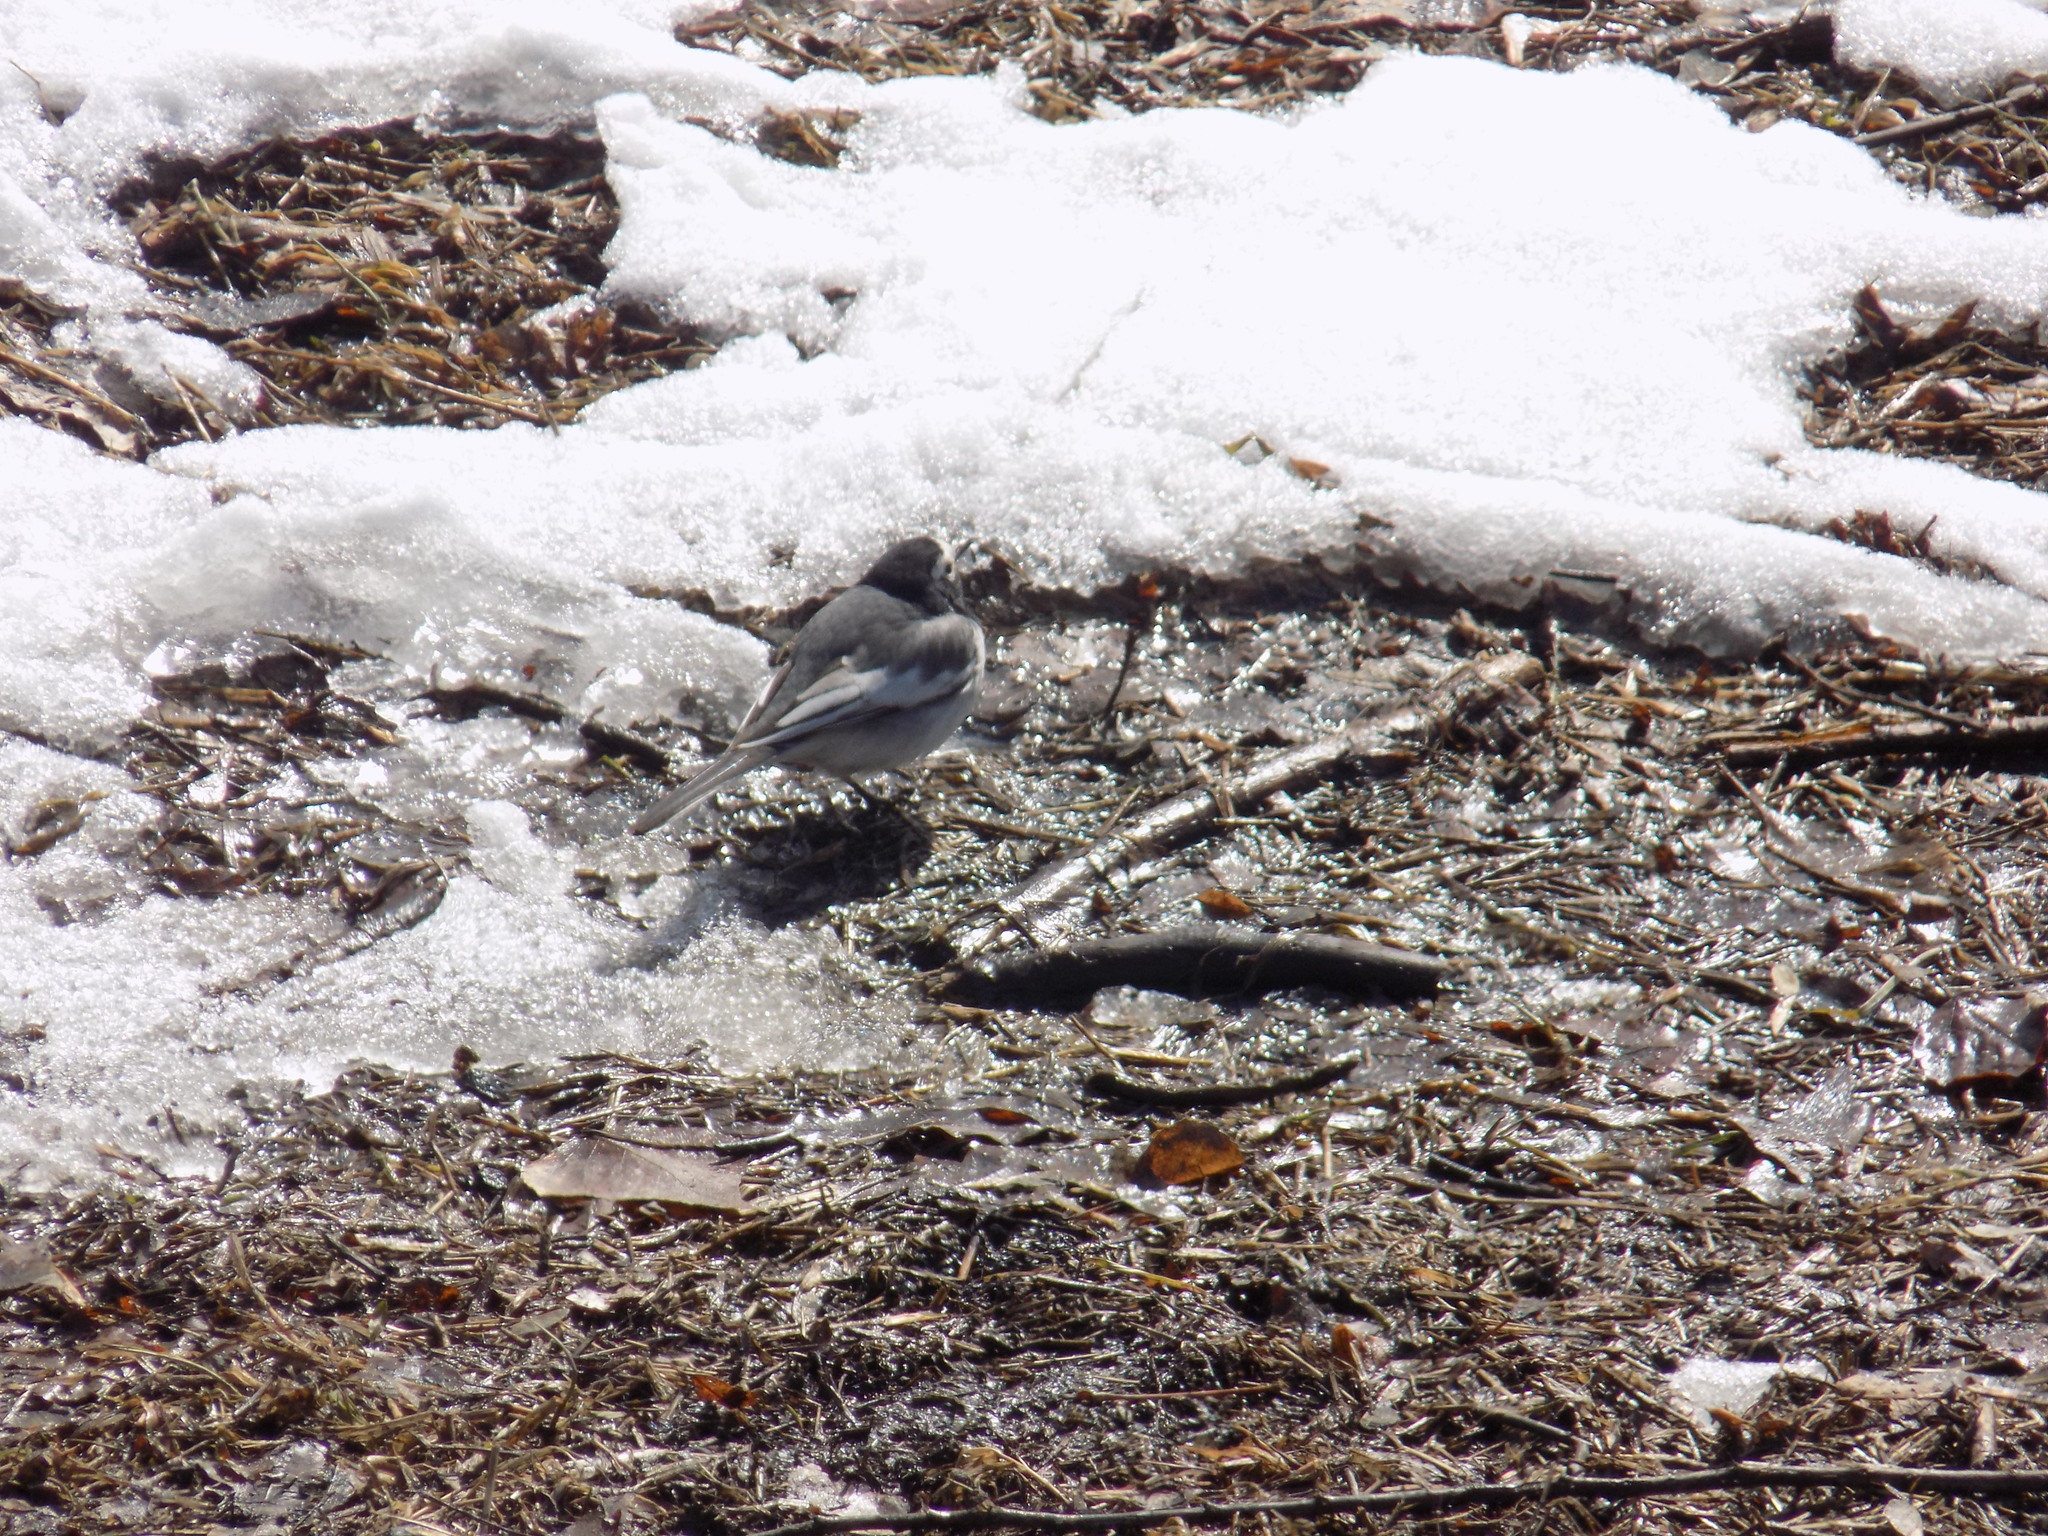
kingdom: Animalia
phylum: Chordata
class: Aves
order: Passeriformes
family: Motacillidae
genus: Motacilla
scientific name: Motacilla alba
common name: White wagtail
